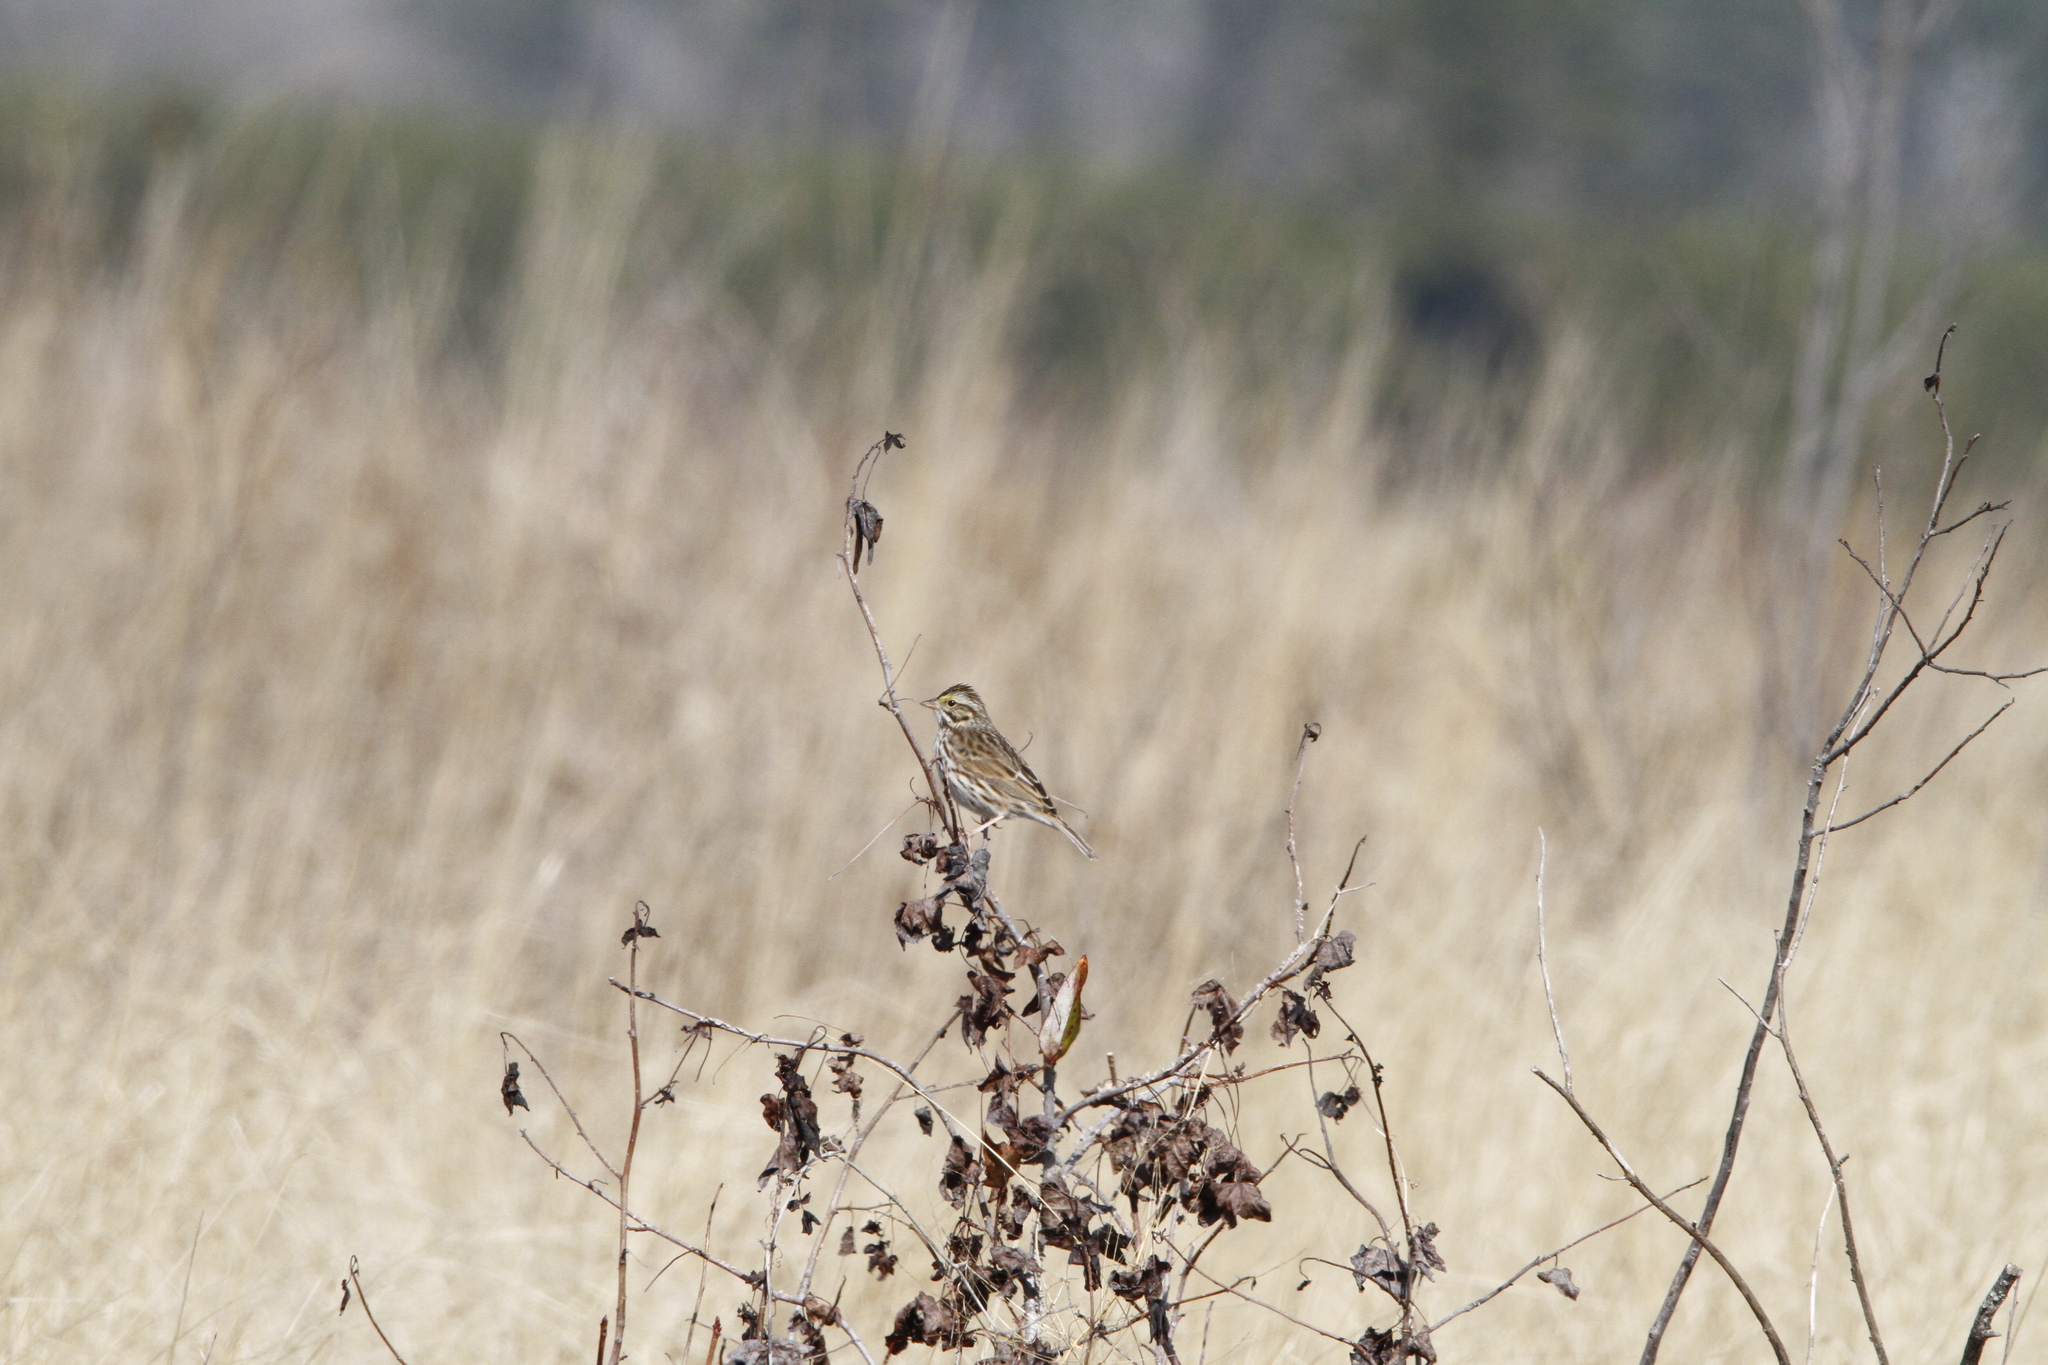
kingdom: Animalia
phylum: Chordata
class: Aves
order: Passeriformes
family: Passerellidae
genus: Passerculus
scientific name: Passerculus sandwichensis
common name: Savannah sparrow
